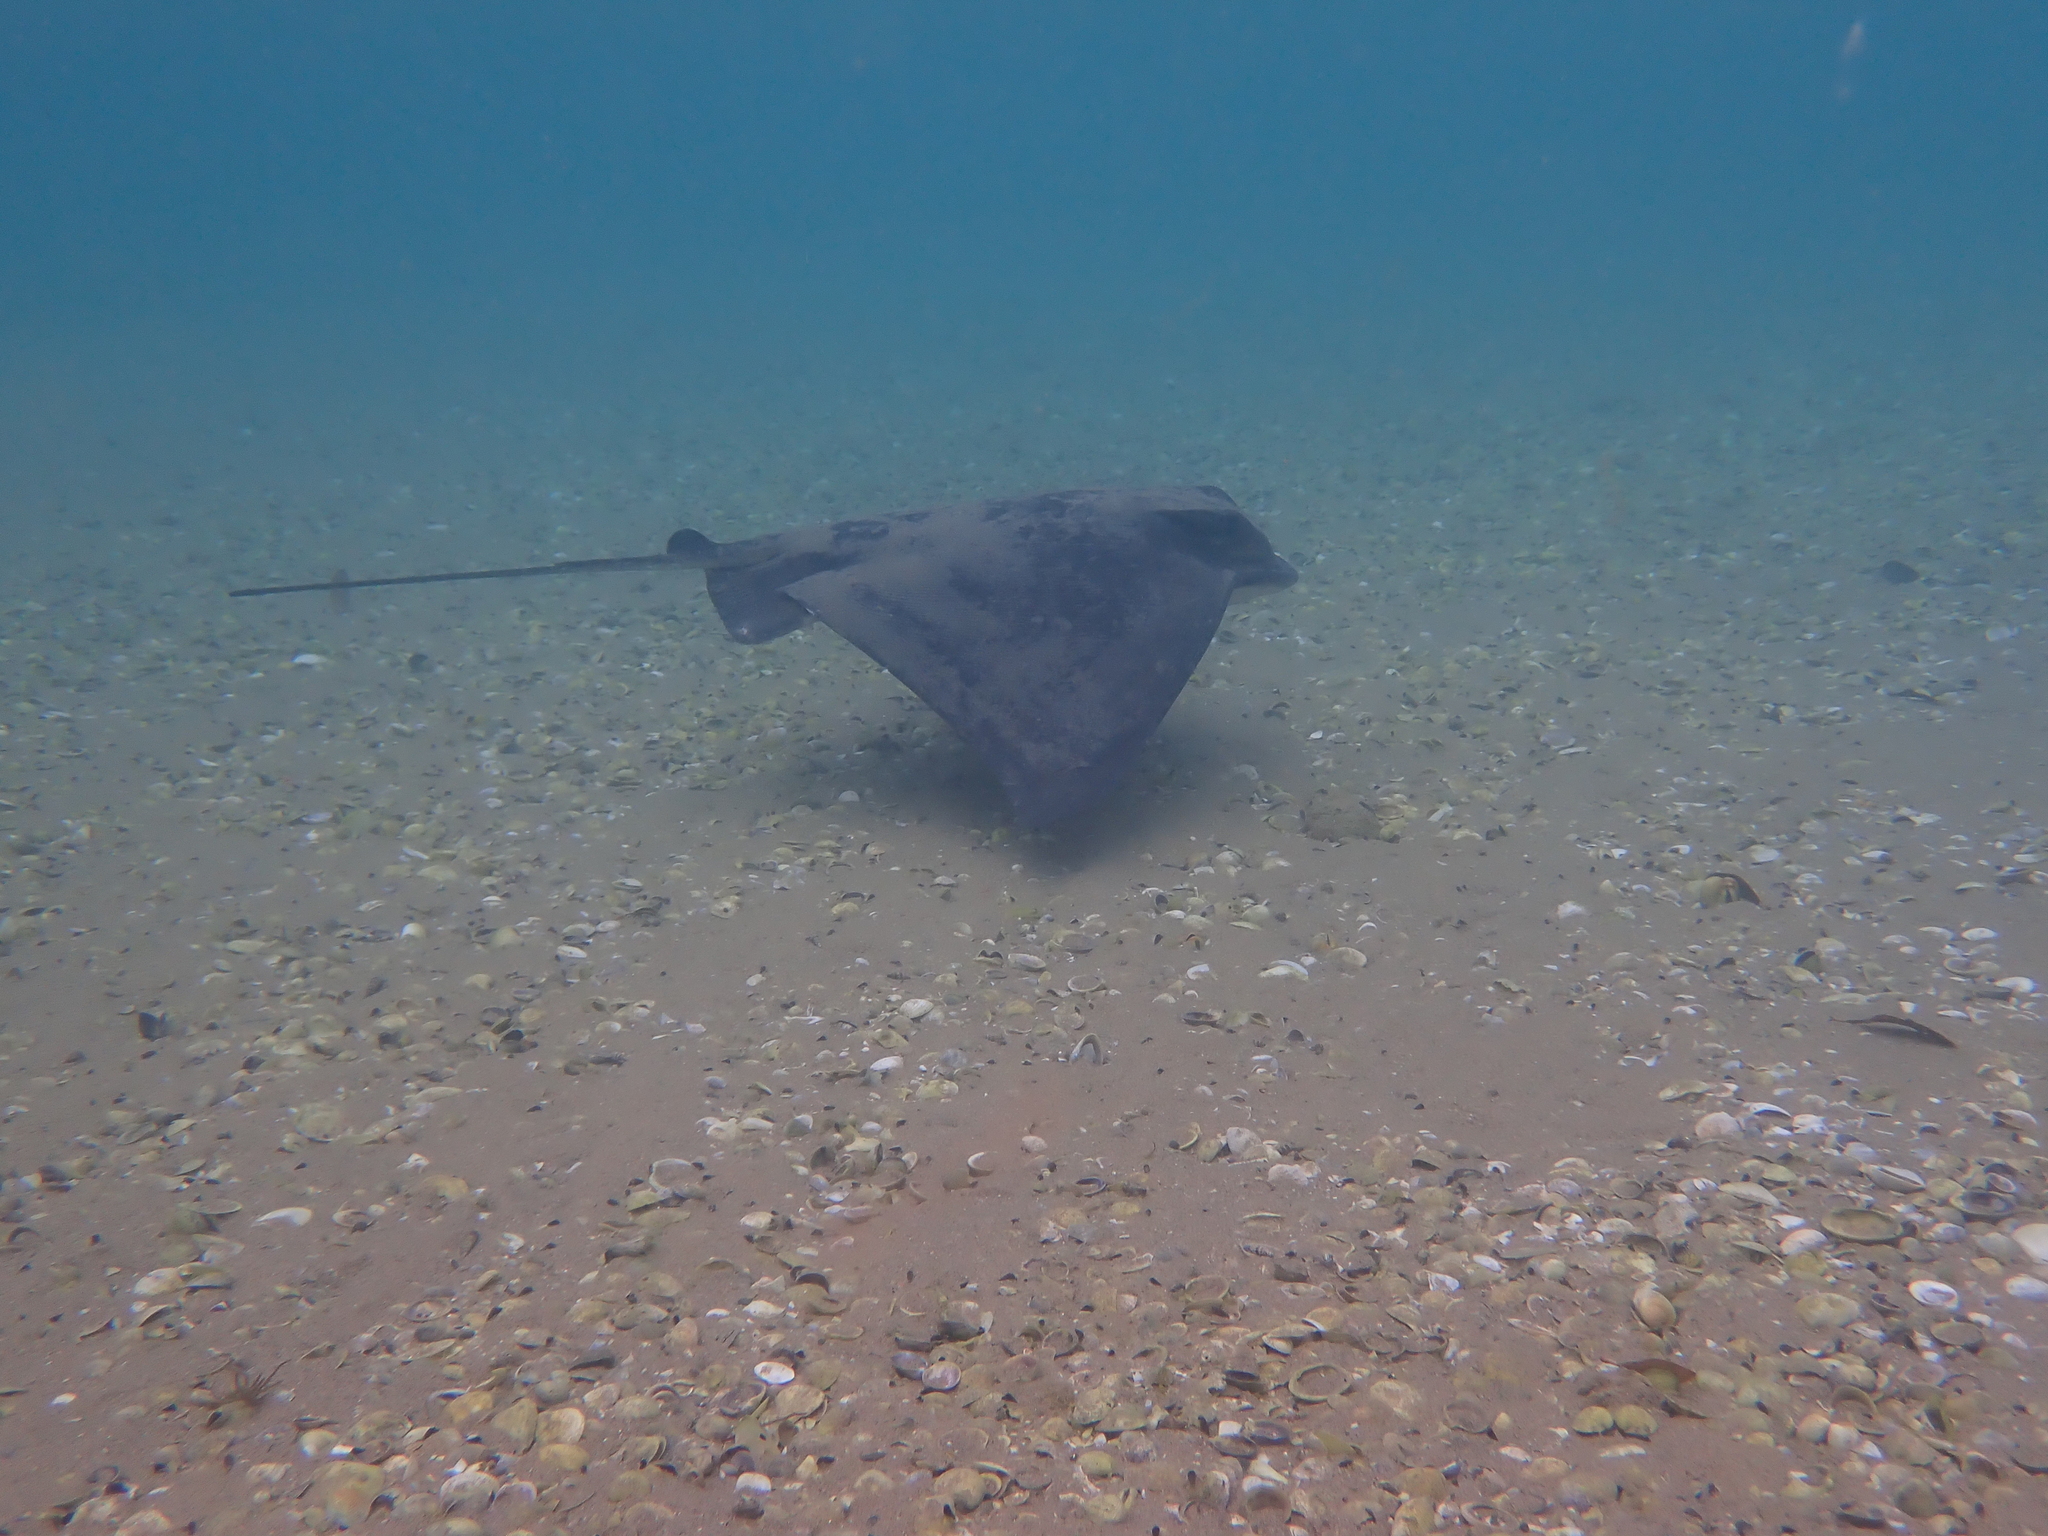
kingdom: Animalia
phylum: Chordata
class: Elasmobranchii
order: Myliobatiformes
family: Myliobatidae
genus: Myliobatis
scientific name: Myliobatis tenuicaudatus
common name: Eagle ray
